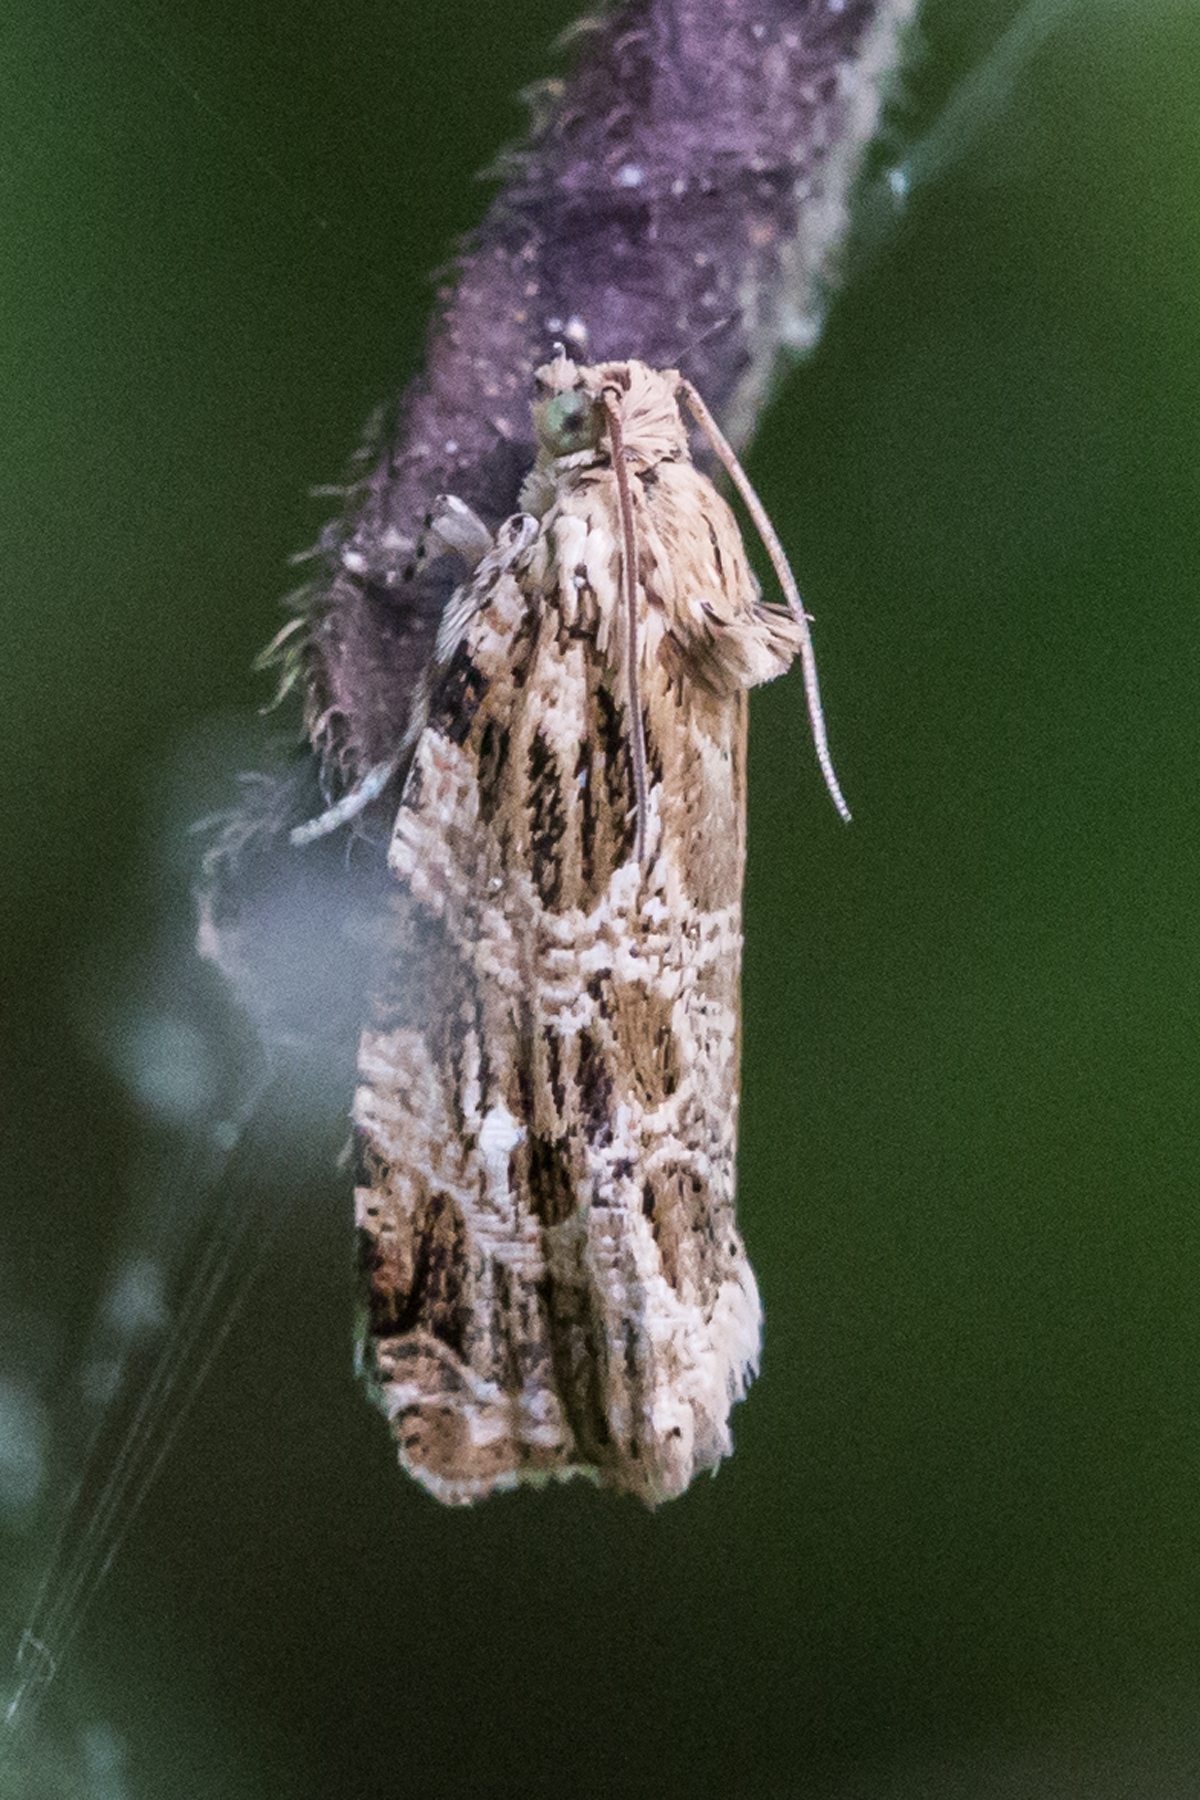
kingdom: Animalia
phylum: Arthropoda
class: Insecta
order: Lepidoptera
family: Tortricidae
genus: Phaecasiophora
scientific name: Phaecasiophora confixana
